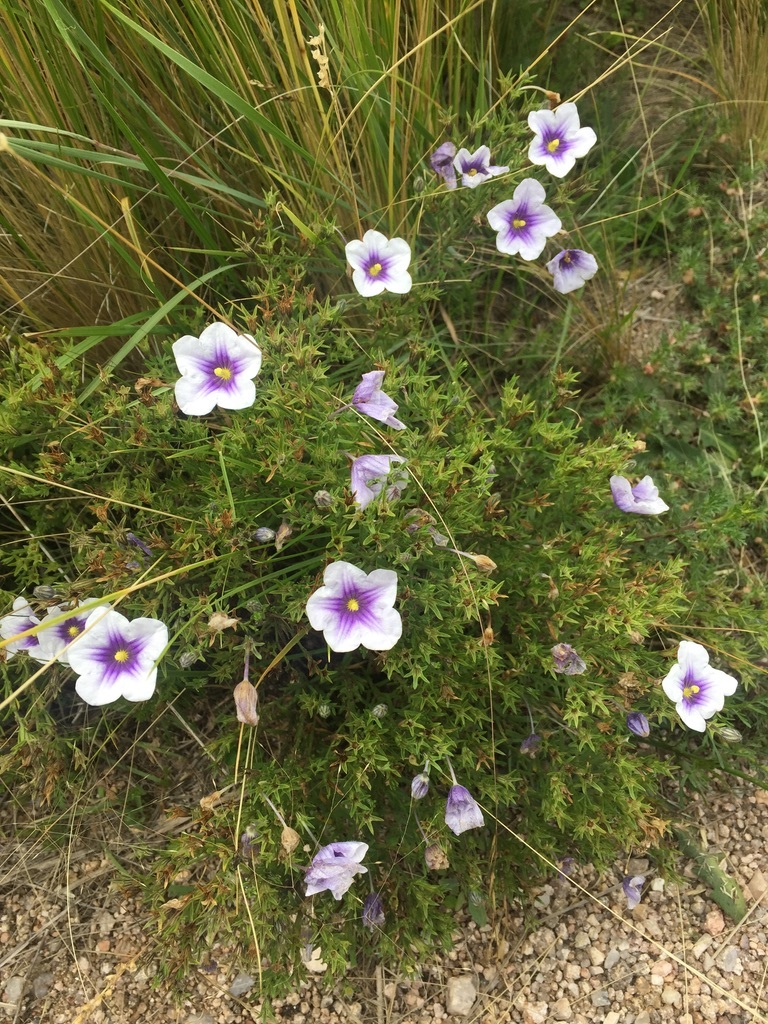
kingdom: Plantae
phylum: Tracheophyta
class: Magnoliopsida
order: Solanales
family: Solanaceae
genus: Nierembergia
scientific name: Nierembergia linariifolia
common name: Dwarf cupflower
